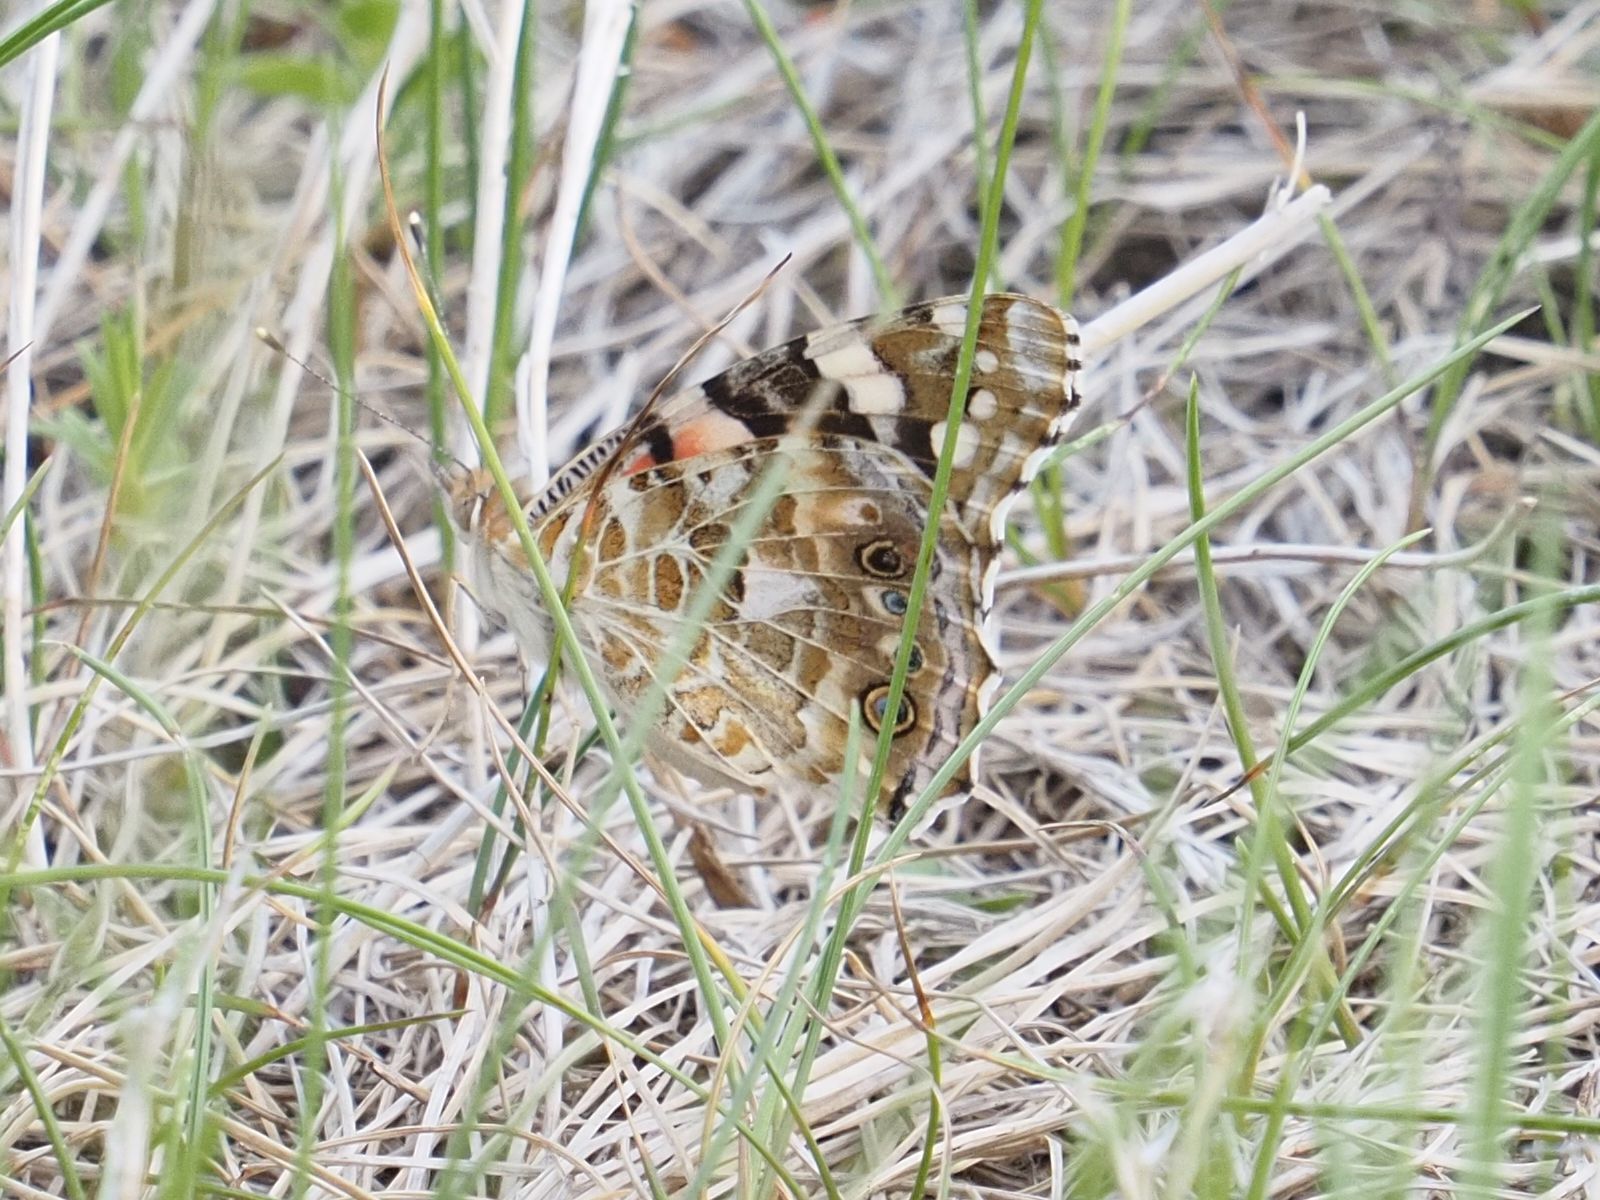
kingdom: Animalia
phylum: Arthropoda
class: Insecta
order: Lepidoptera
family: Nymphalidae
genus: Vanessa
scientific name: Vanessa cardui
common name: Painted lady
